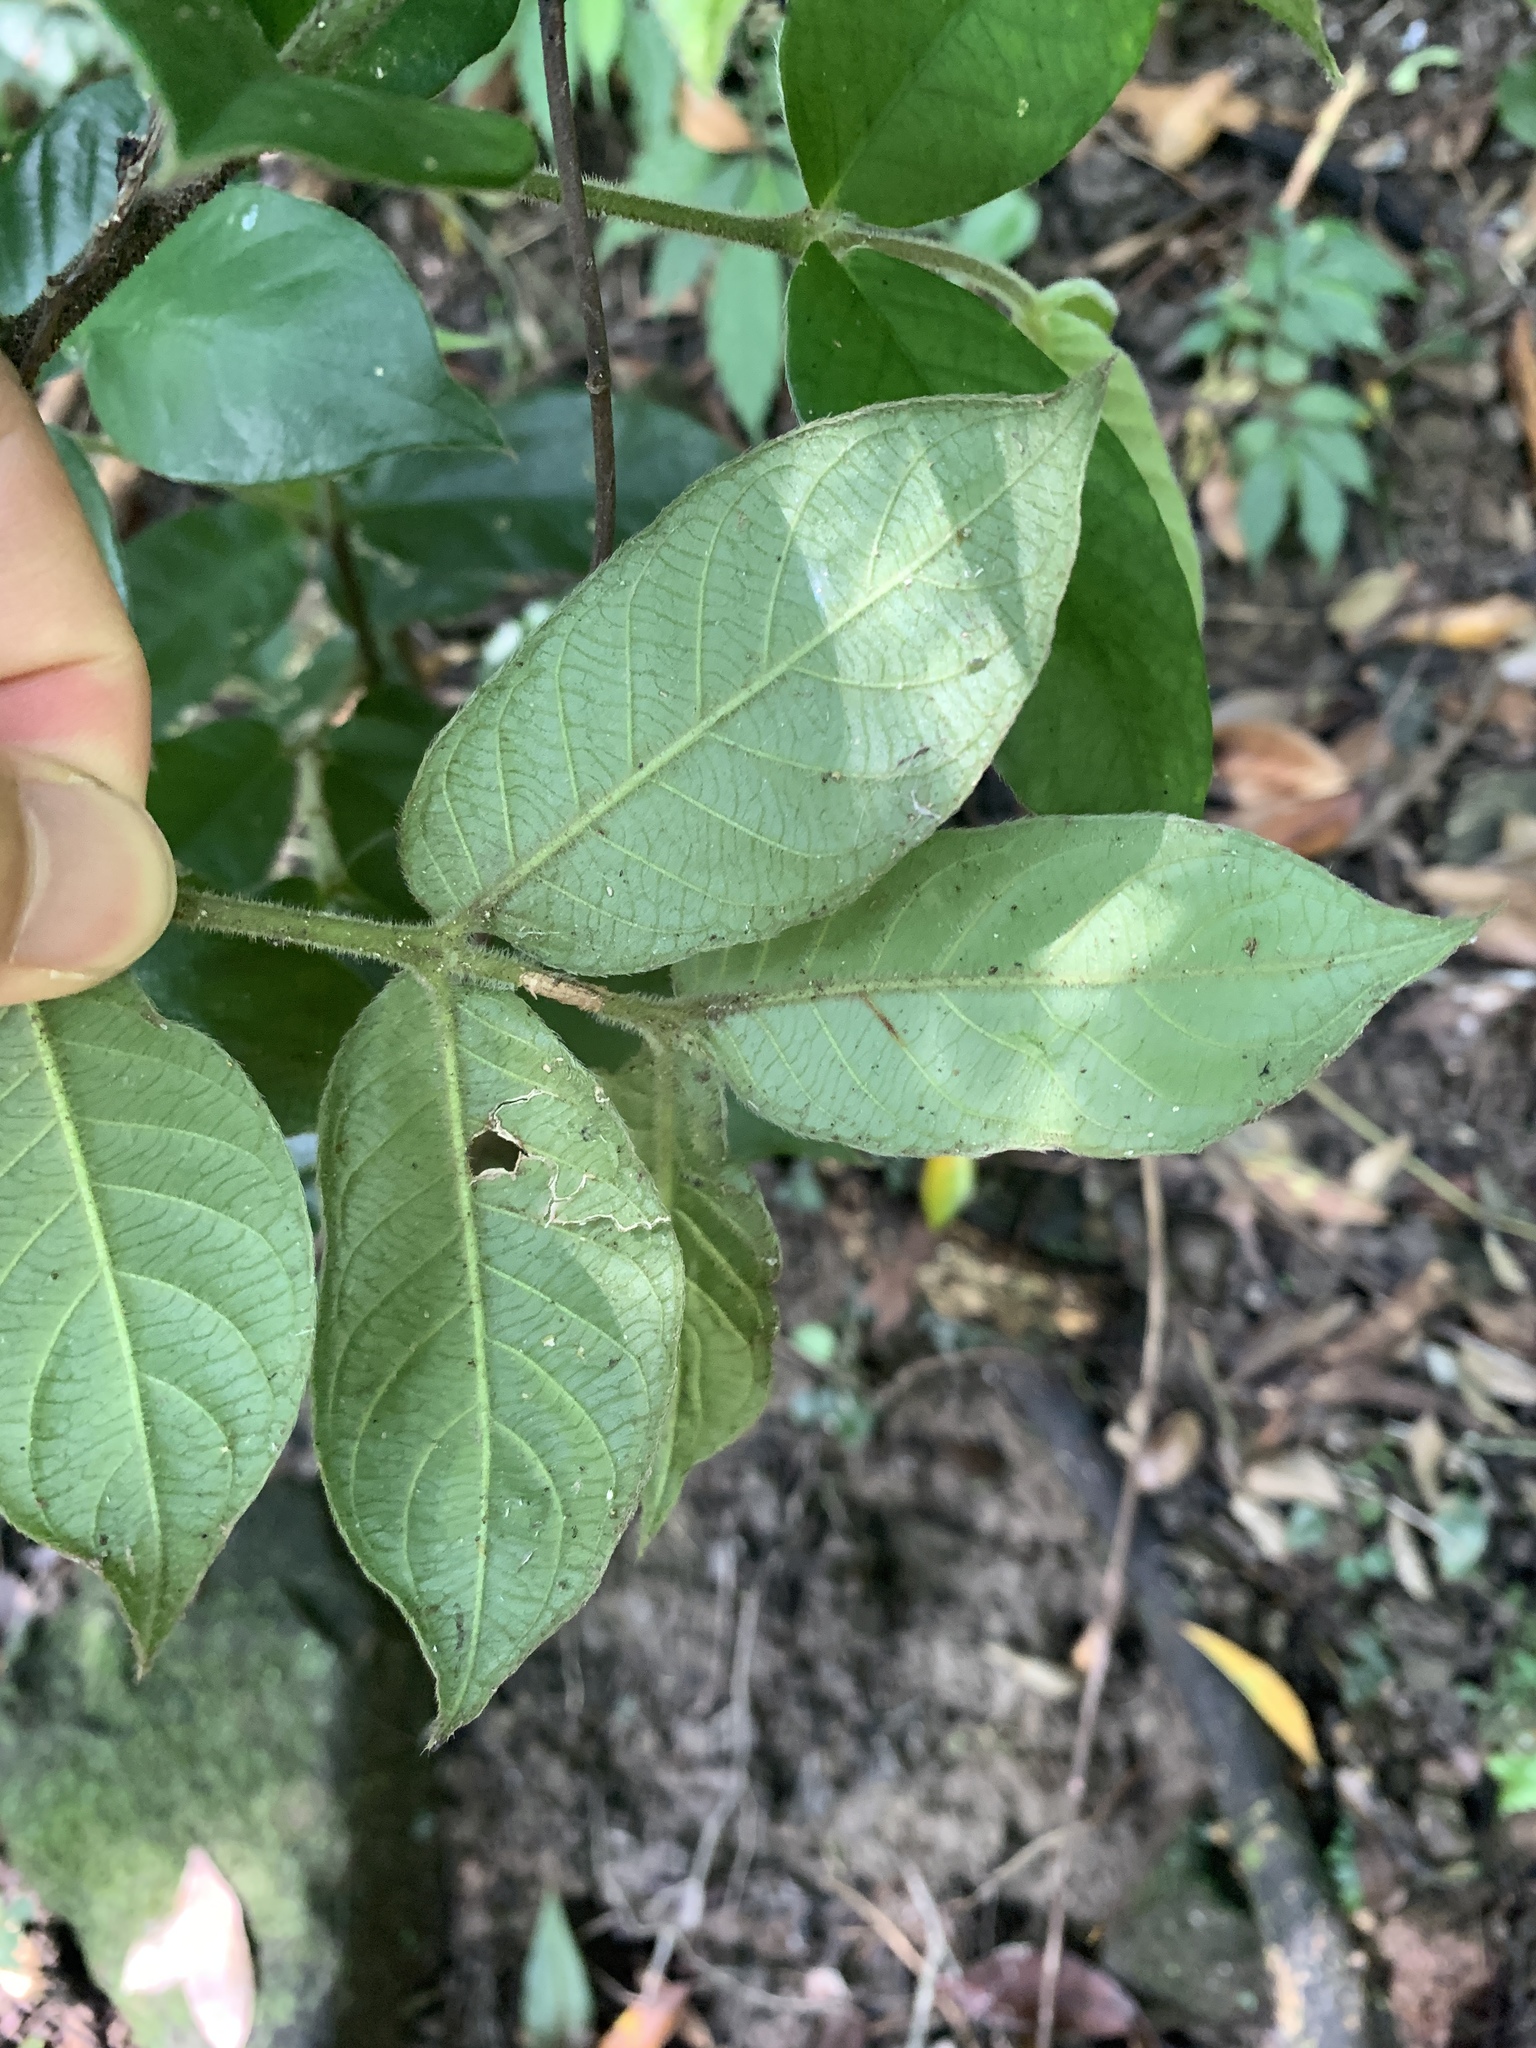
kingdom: Plantae
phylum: Tracheophyta
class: Magnoliopsida
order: Gentianales
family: Rubiaceae
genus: Lasianthus
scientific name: Lasianthus attenuatus
